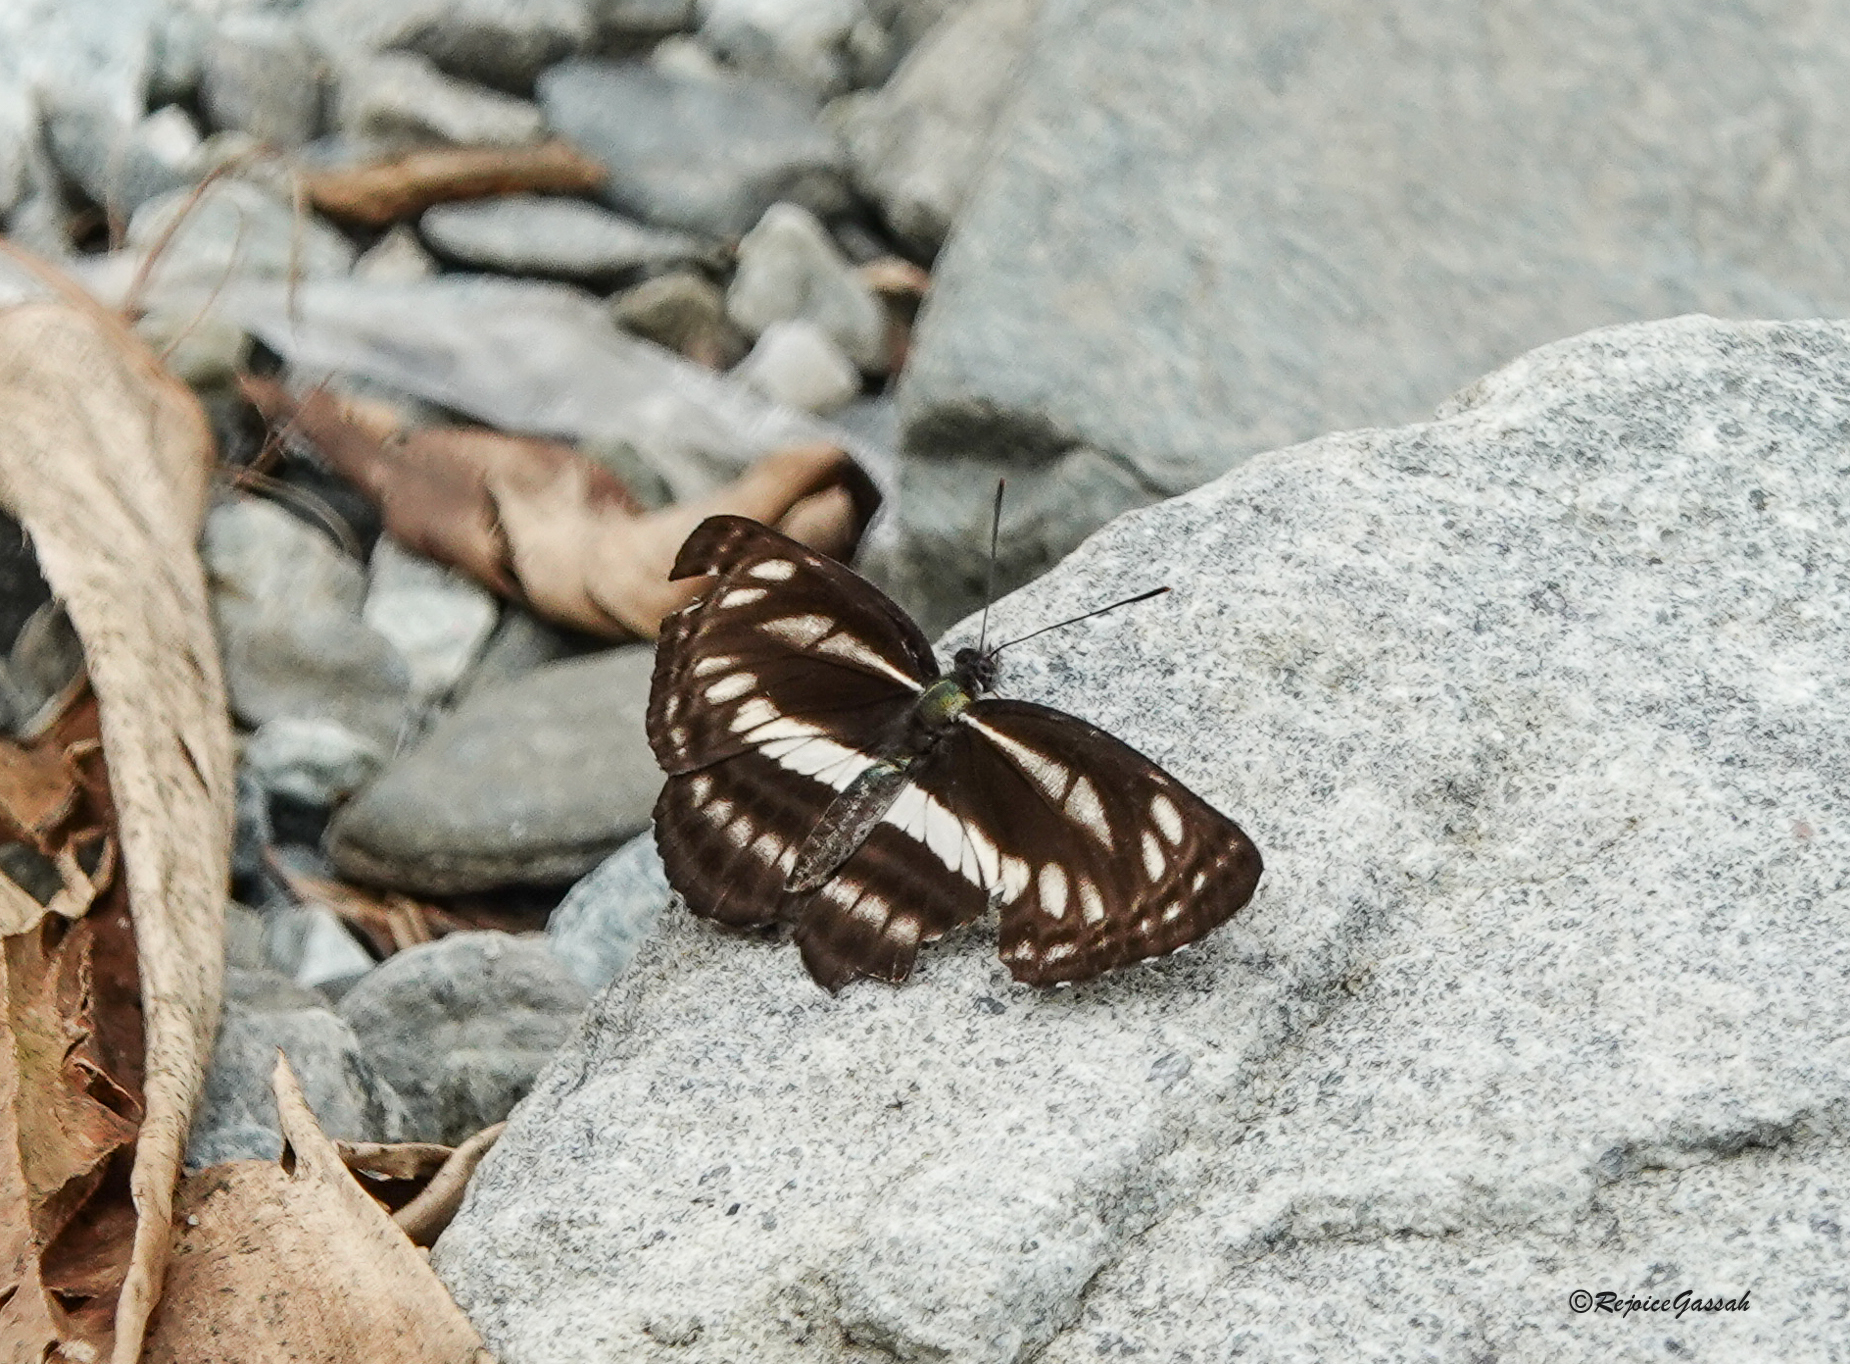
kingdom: Animalia
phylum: Arthropoda
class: Insecta
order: Lepidoptera
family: Nymphalidae
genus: Neptis
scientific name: Neptis clinia
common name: Southern sullied sailer
